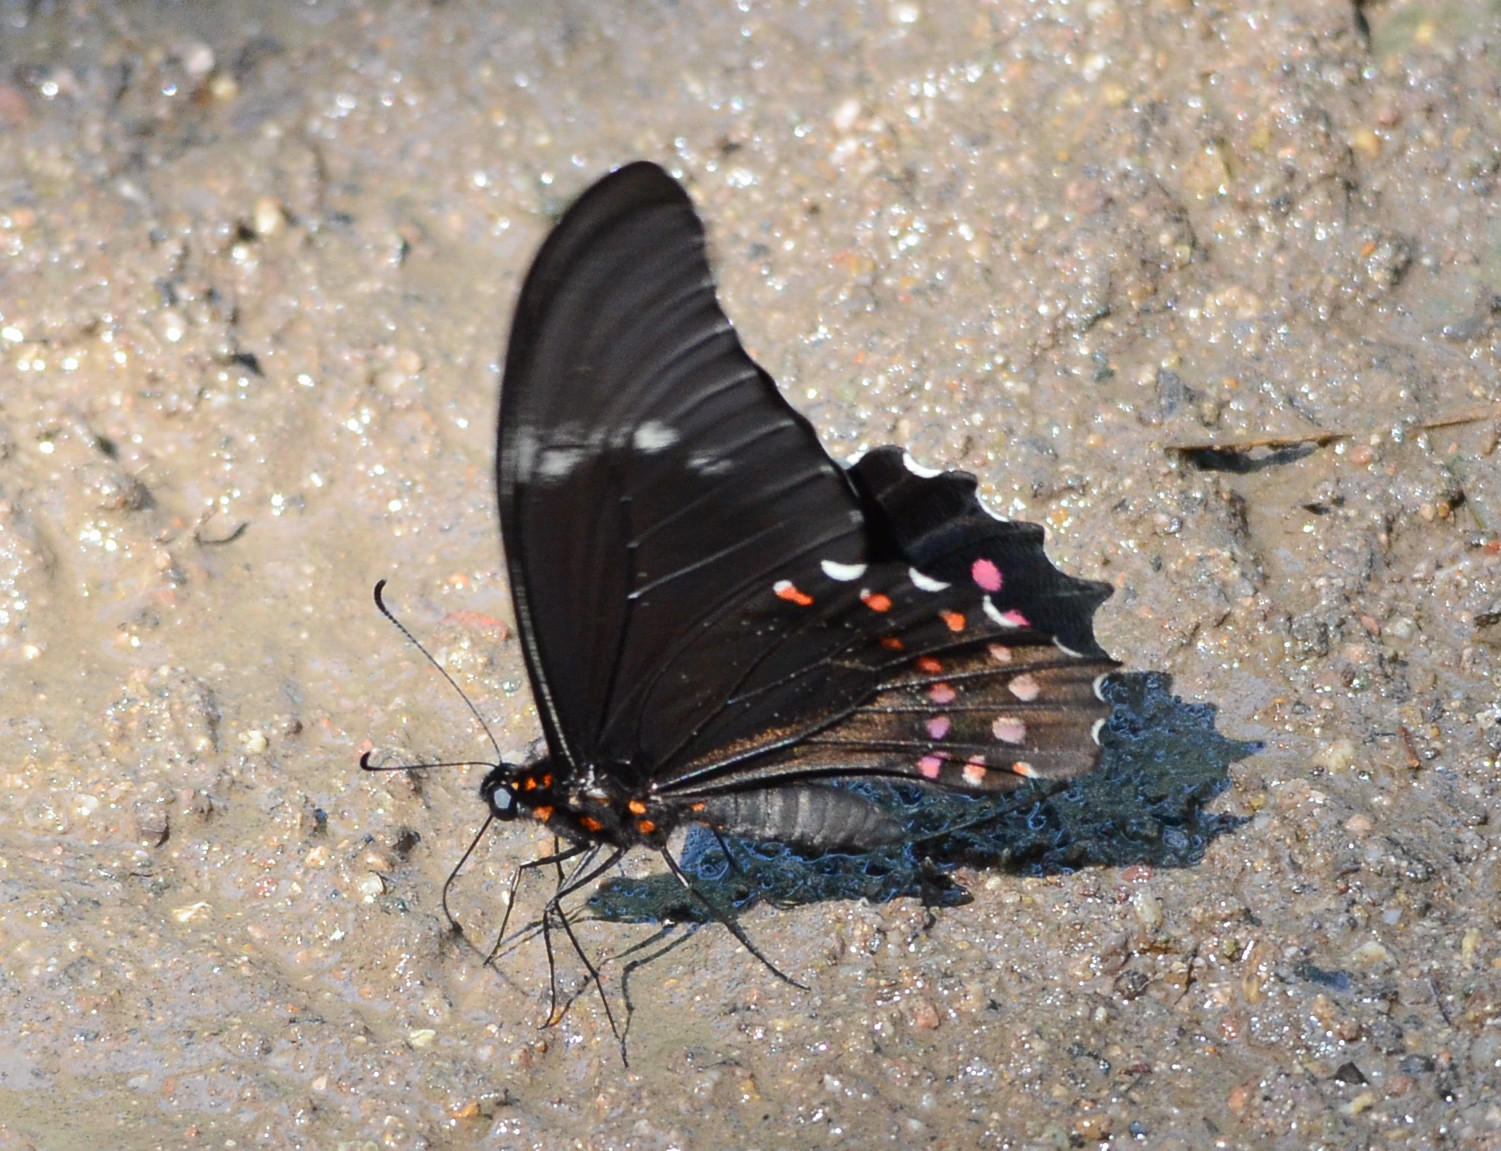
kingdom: Animalia
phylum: Arthropoda
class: Insecta
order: Lepidoptera
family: Papilionidae
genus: Heraclides
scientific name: Heraclides rogeri
